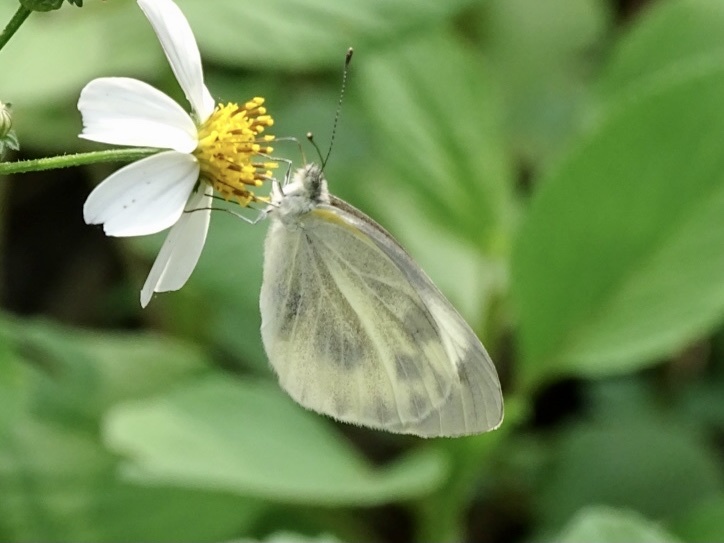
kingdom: Animalia
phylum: Arthropoda
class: Insecta
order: Lepidoptera
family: Pieridae
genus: Pieris
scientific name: Pieris canidia
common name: Indian cabbage white
